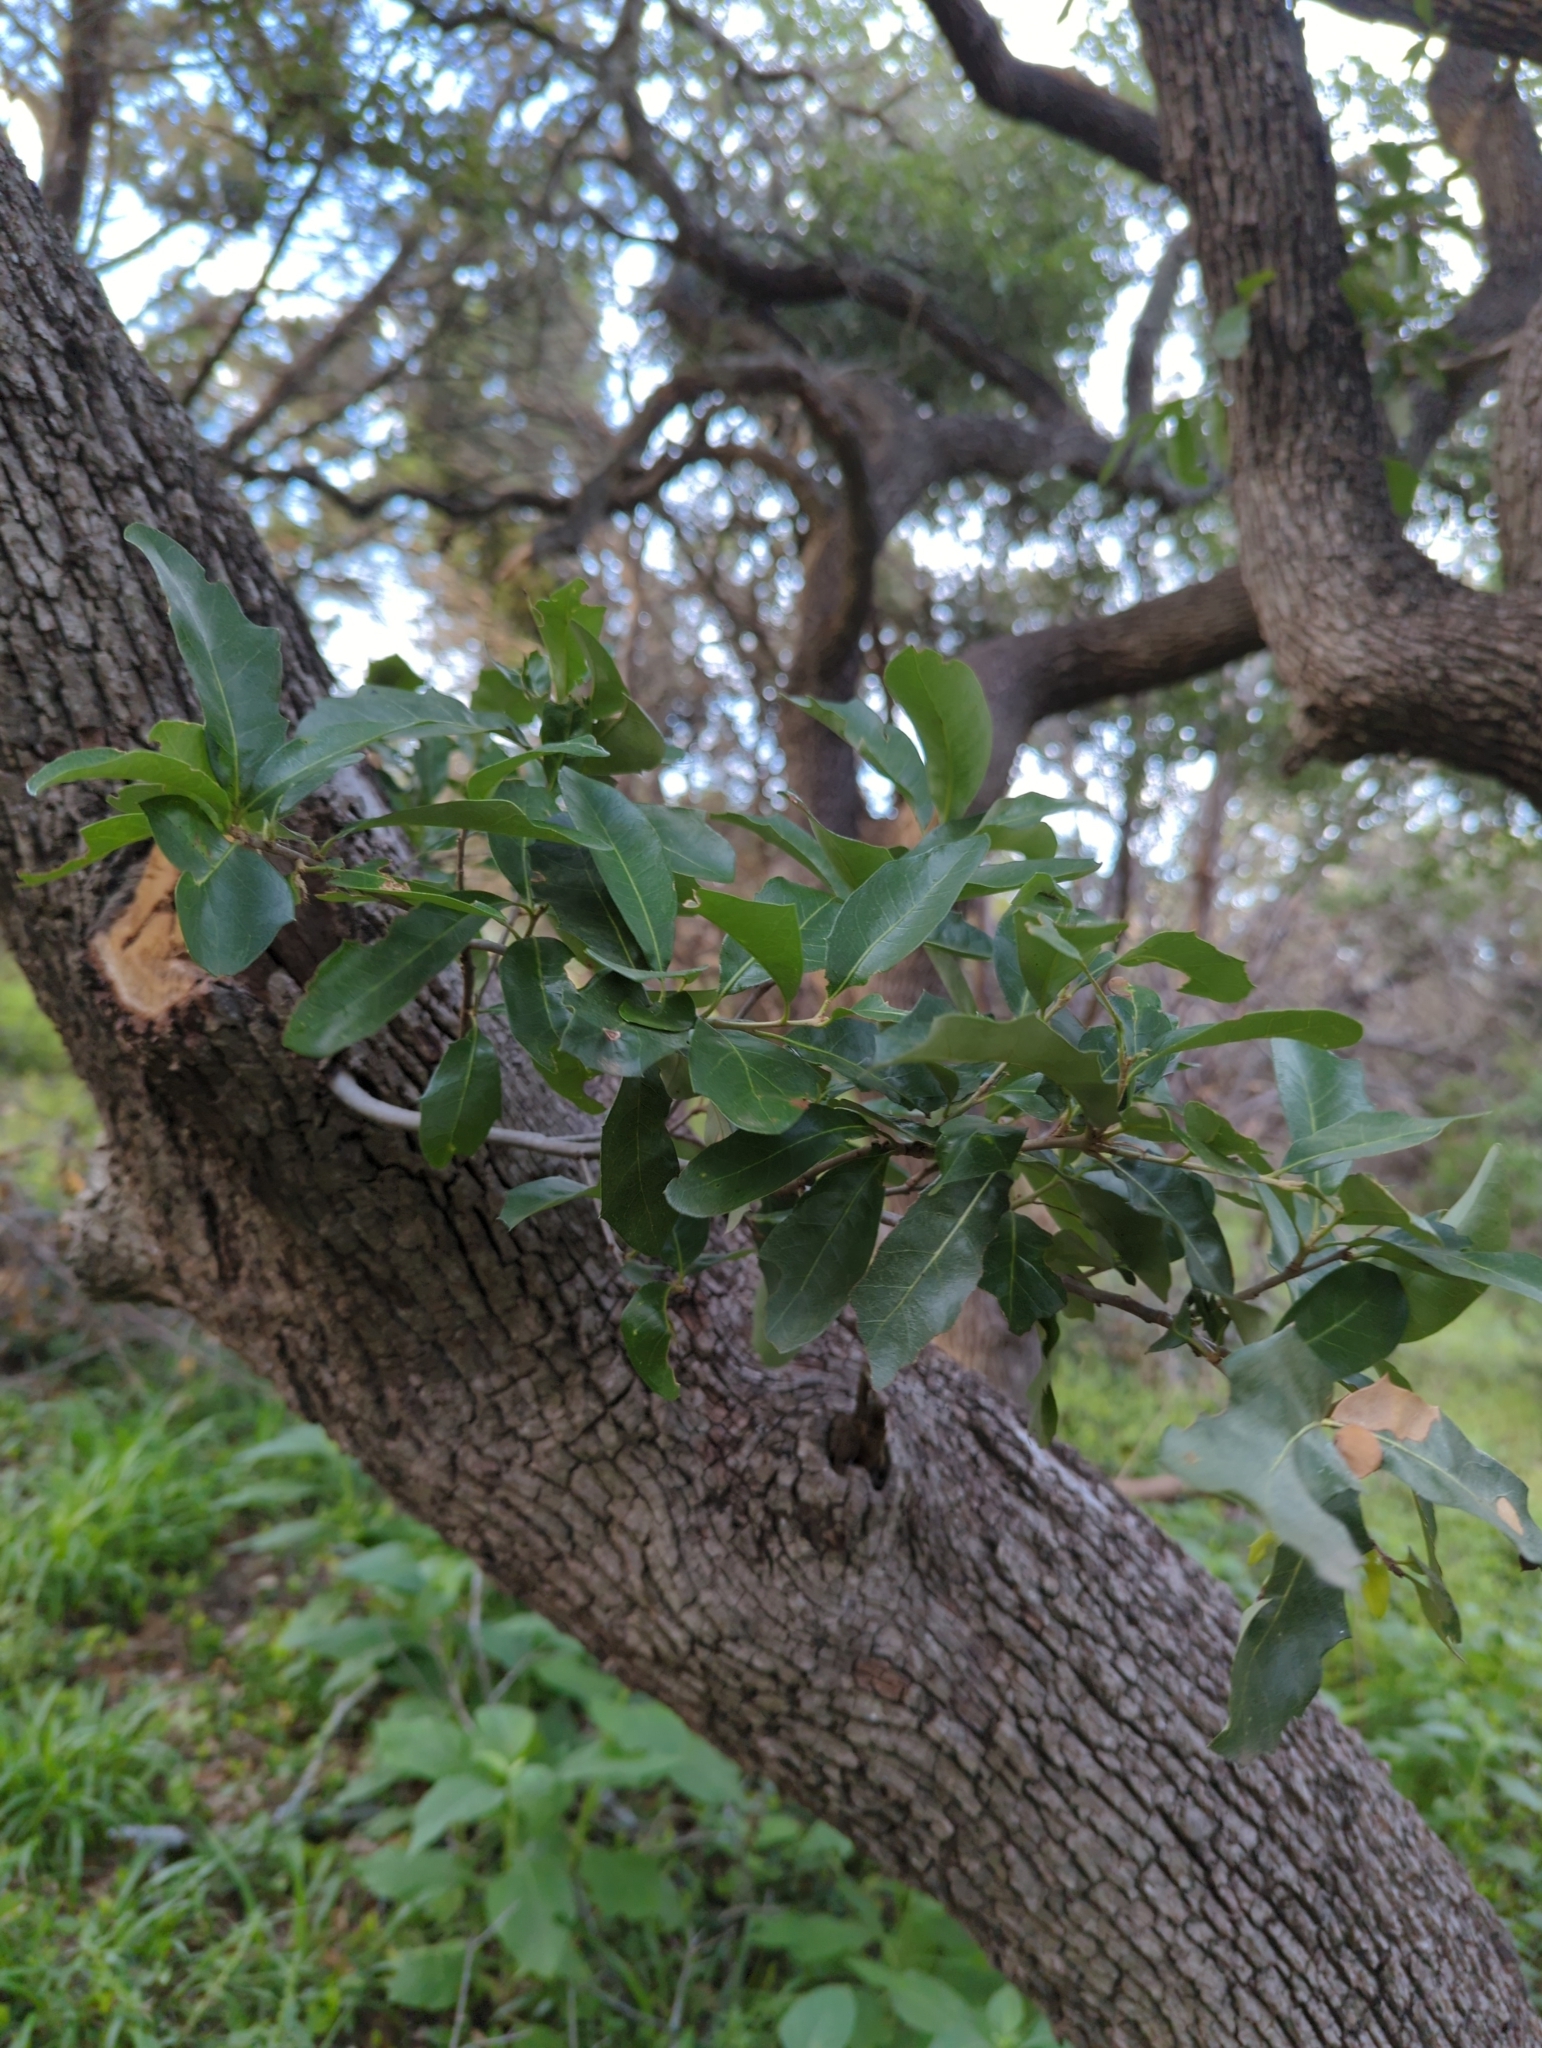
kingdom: Plantae
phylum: Tracheophyta
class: Magnoliopsida
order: Fagales
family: Fagaceae
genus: Quercus
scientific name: Quercus fusiformis
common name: Texas live oak
